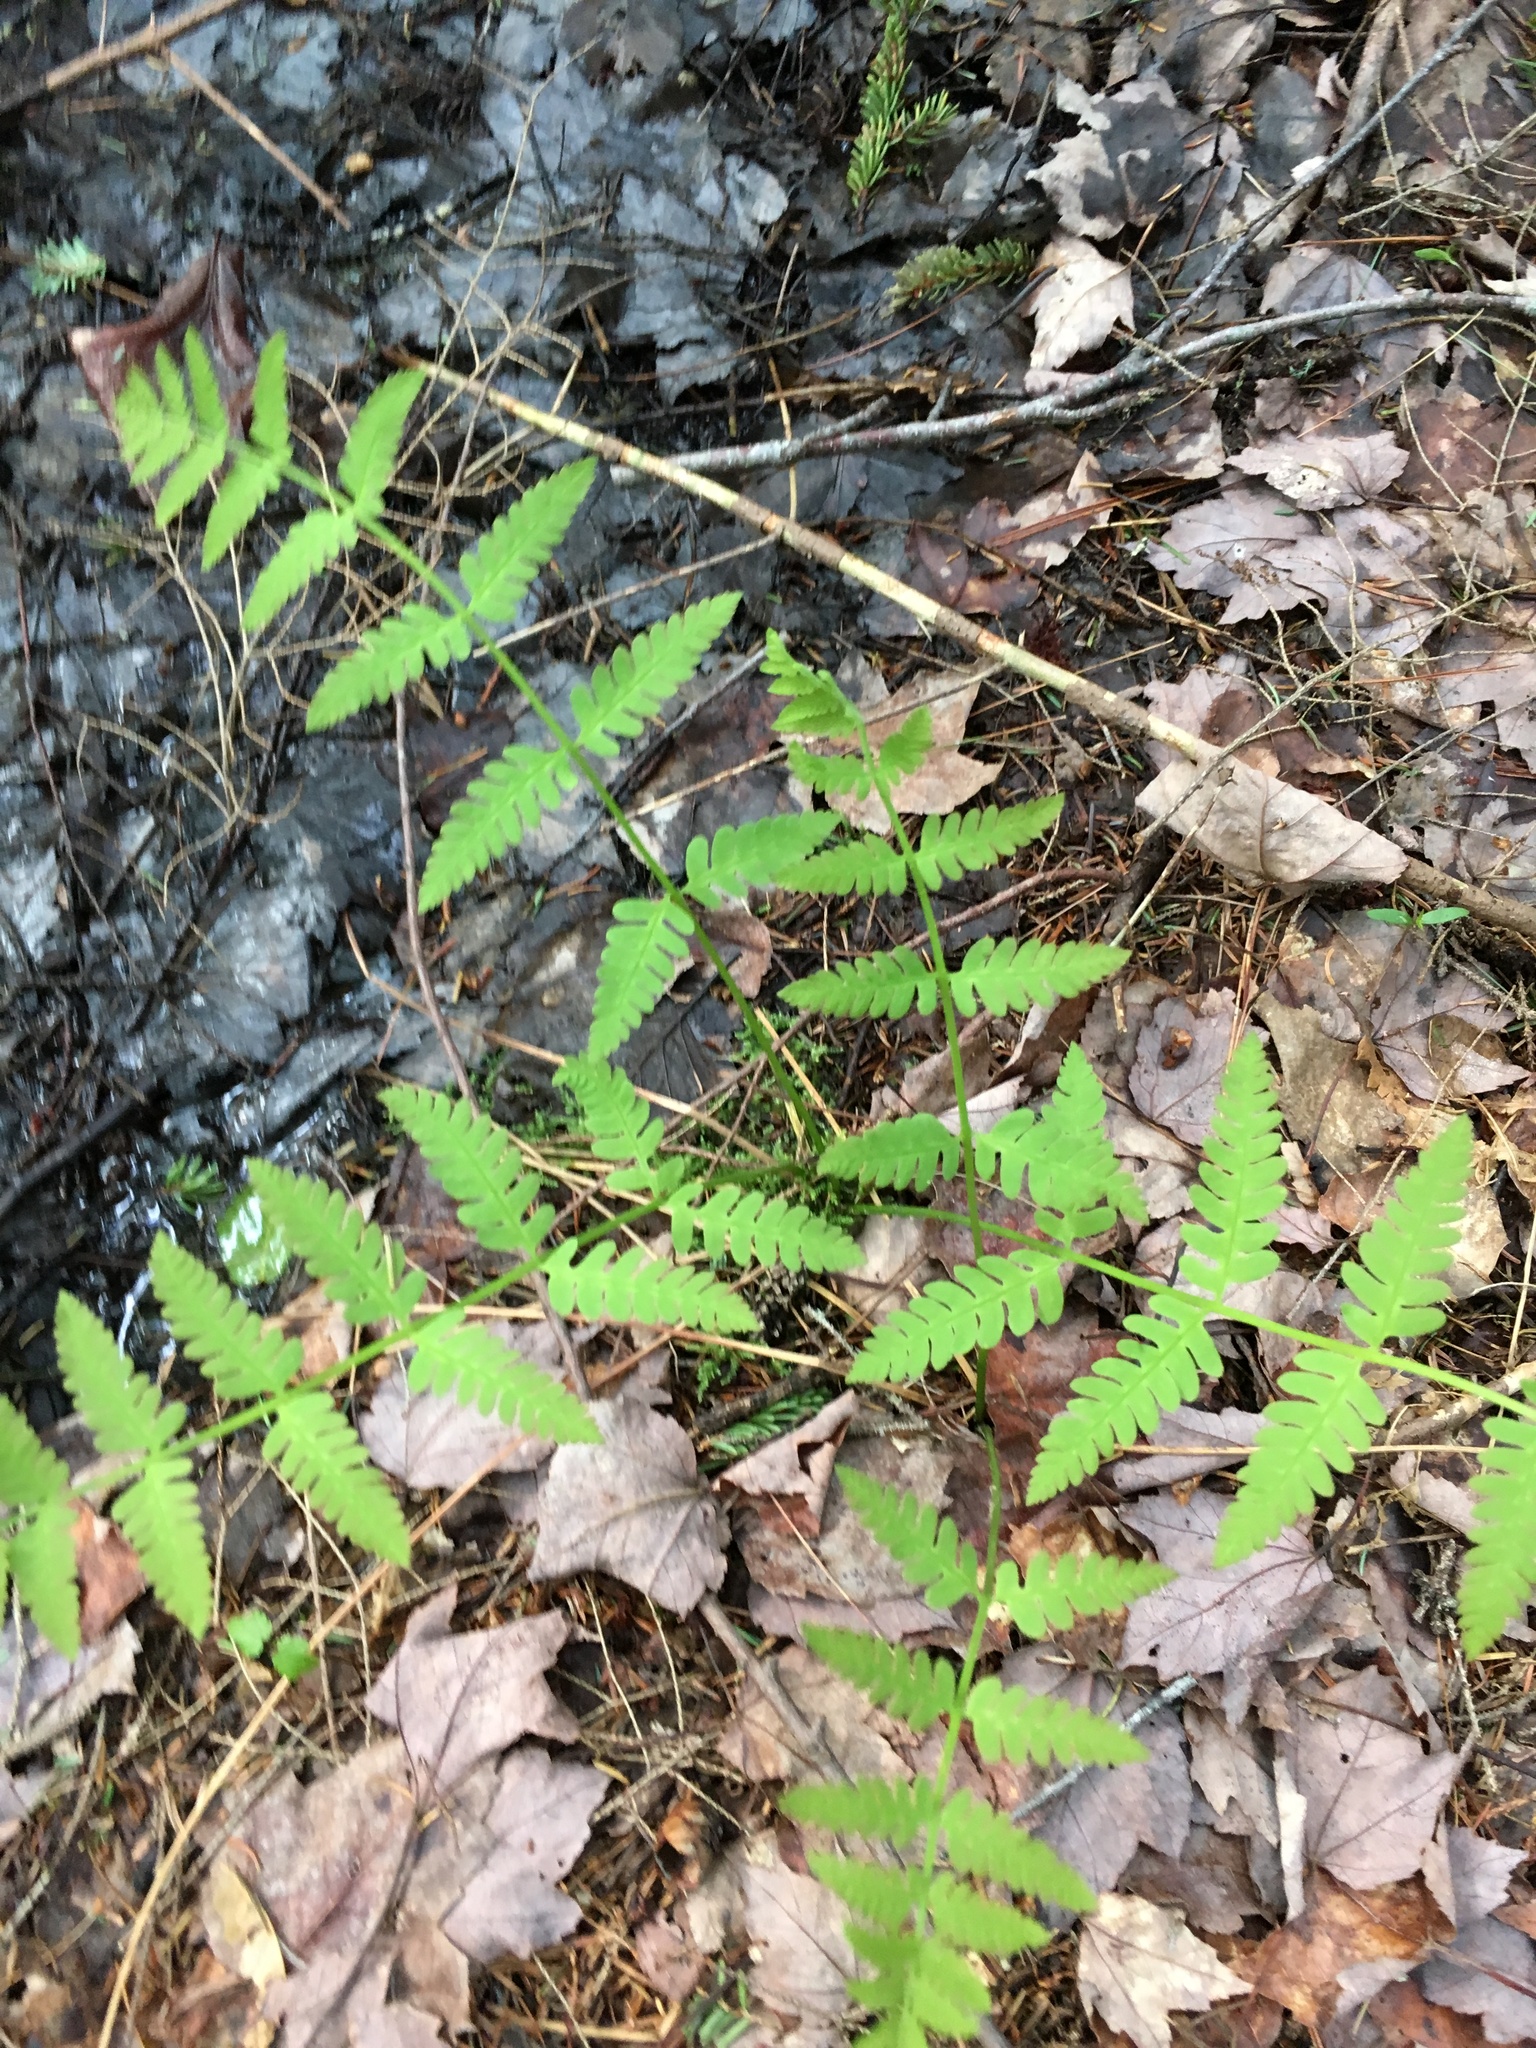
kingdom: Plantae
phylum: Tracheophyta
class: Polypodiopsida
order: Osmundales
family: Osmundaceae
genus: Claytosmunda
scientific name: Claytosmunda claytoniana
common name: Clayton's fern
